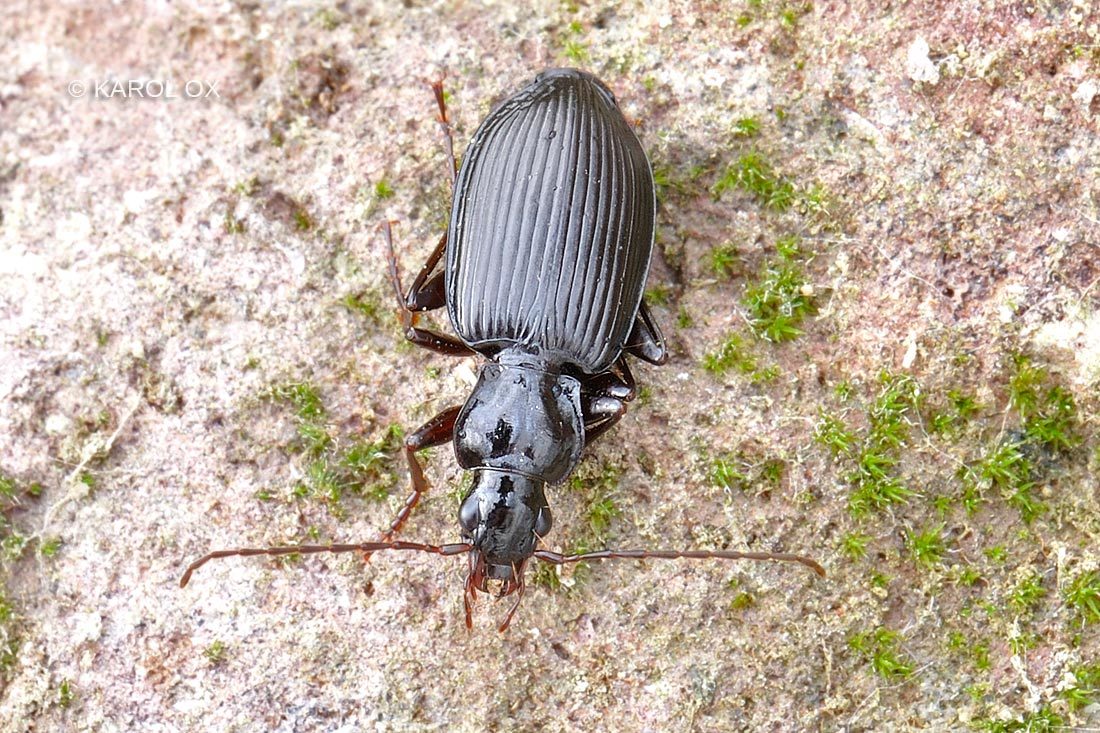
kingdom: Animalia
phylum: Arthropoda
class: Insecta
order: Coleoptera
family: Carabidae
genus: Platynus
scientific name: Platynus assimilis
